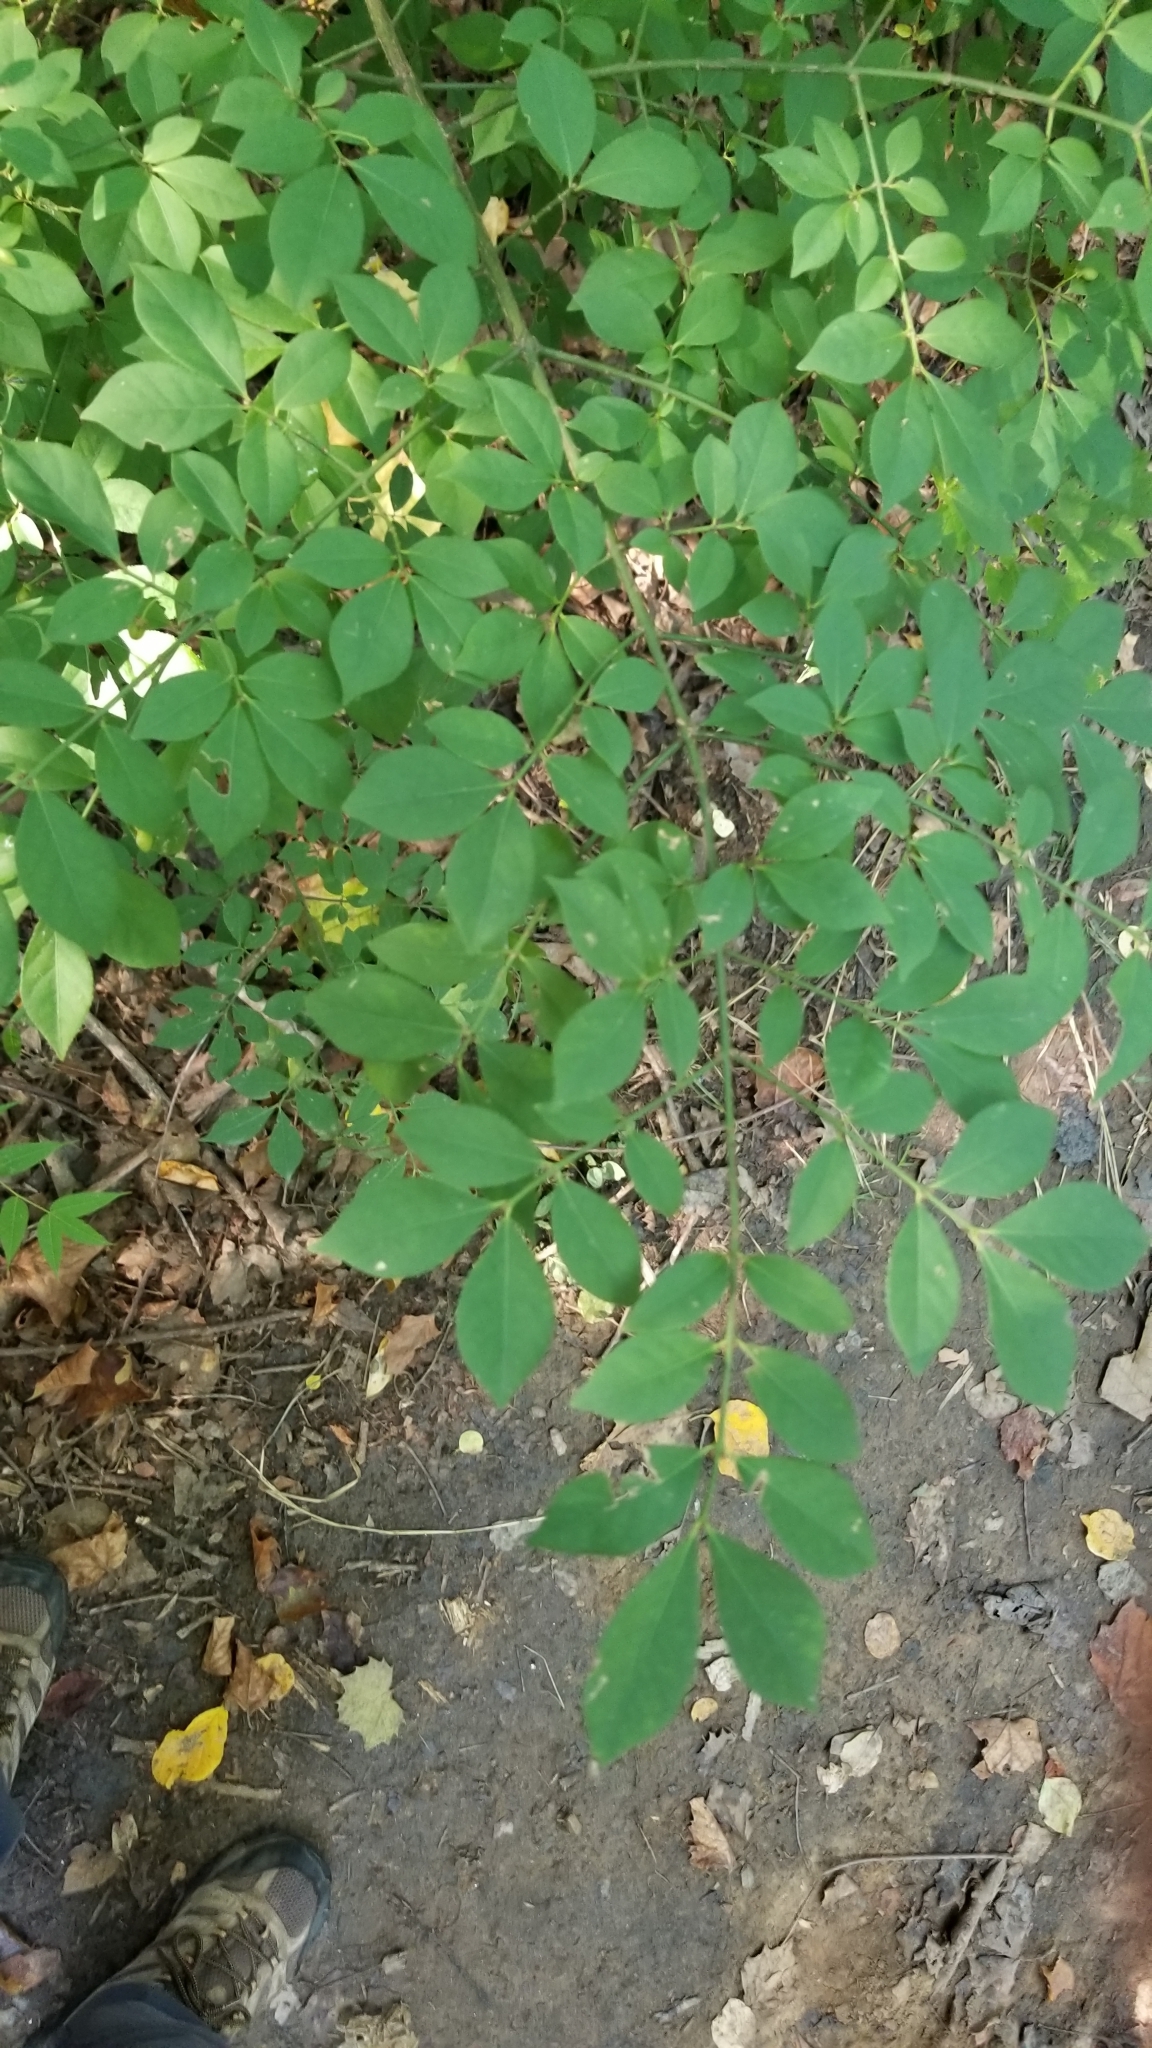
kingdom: Plantae
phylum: Tracheophyta
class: Magnoliopsida
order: Celastrales
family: Celastraceae
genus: Euonymus
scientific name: Euonymus alatus
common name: Winged euonymus
